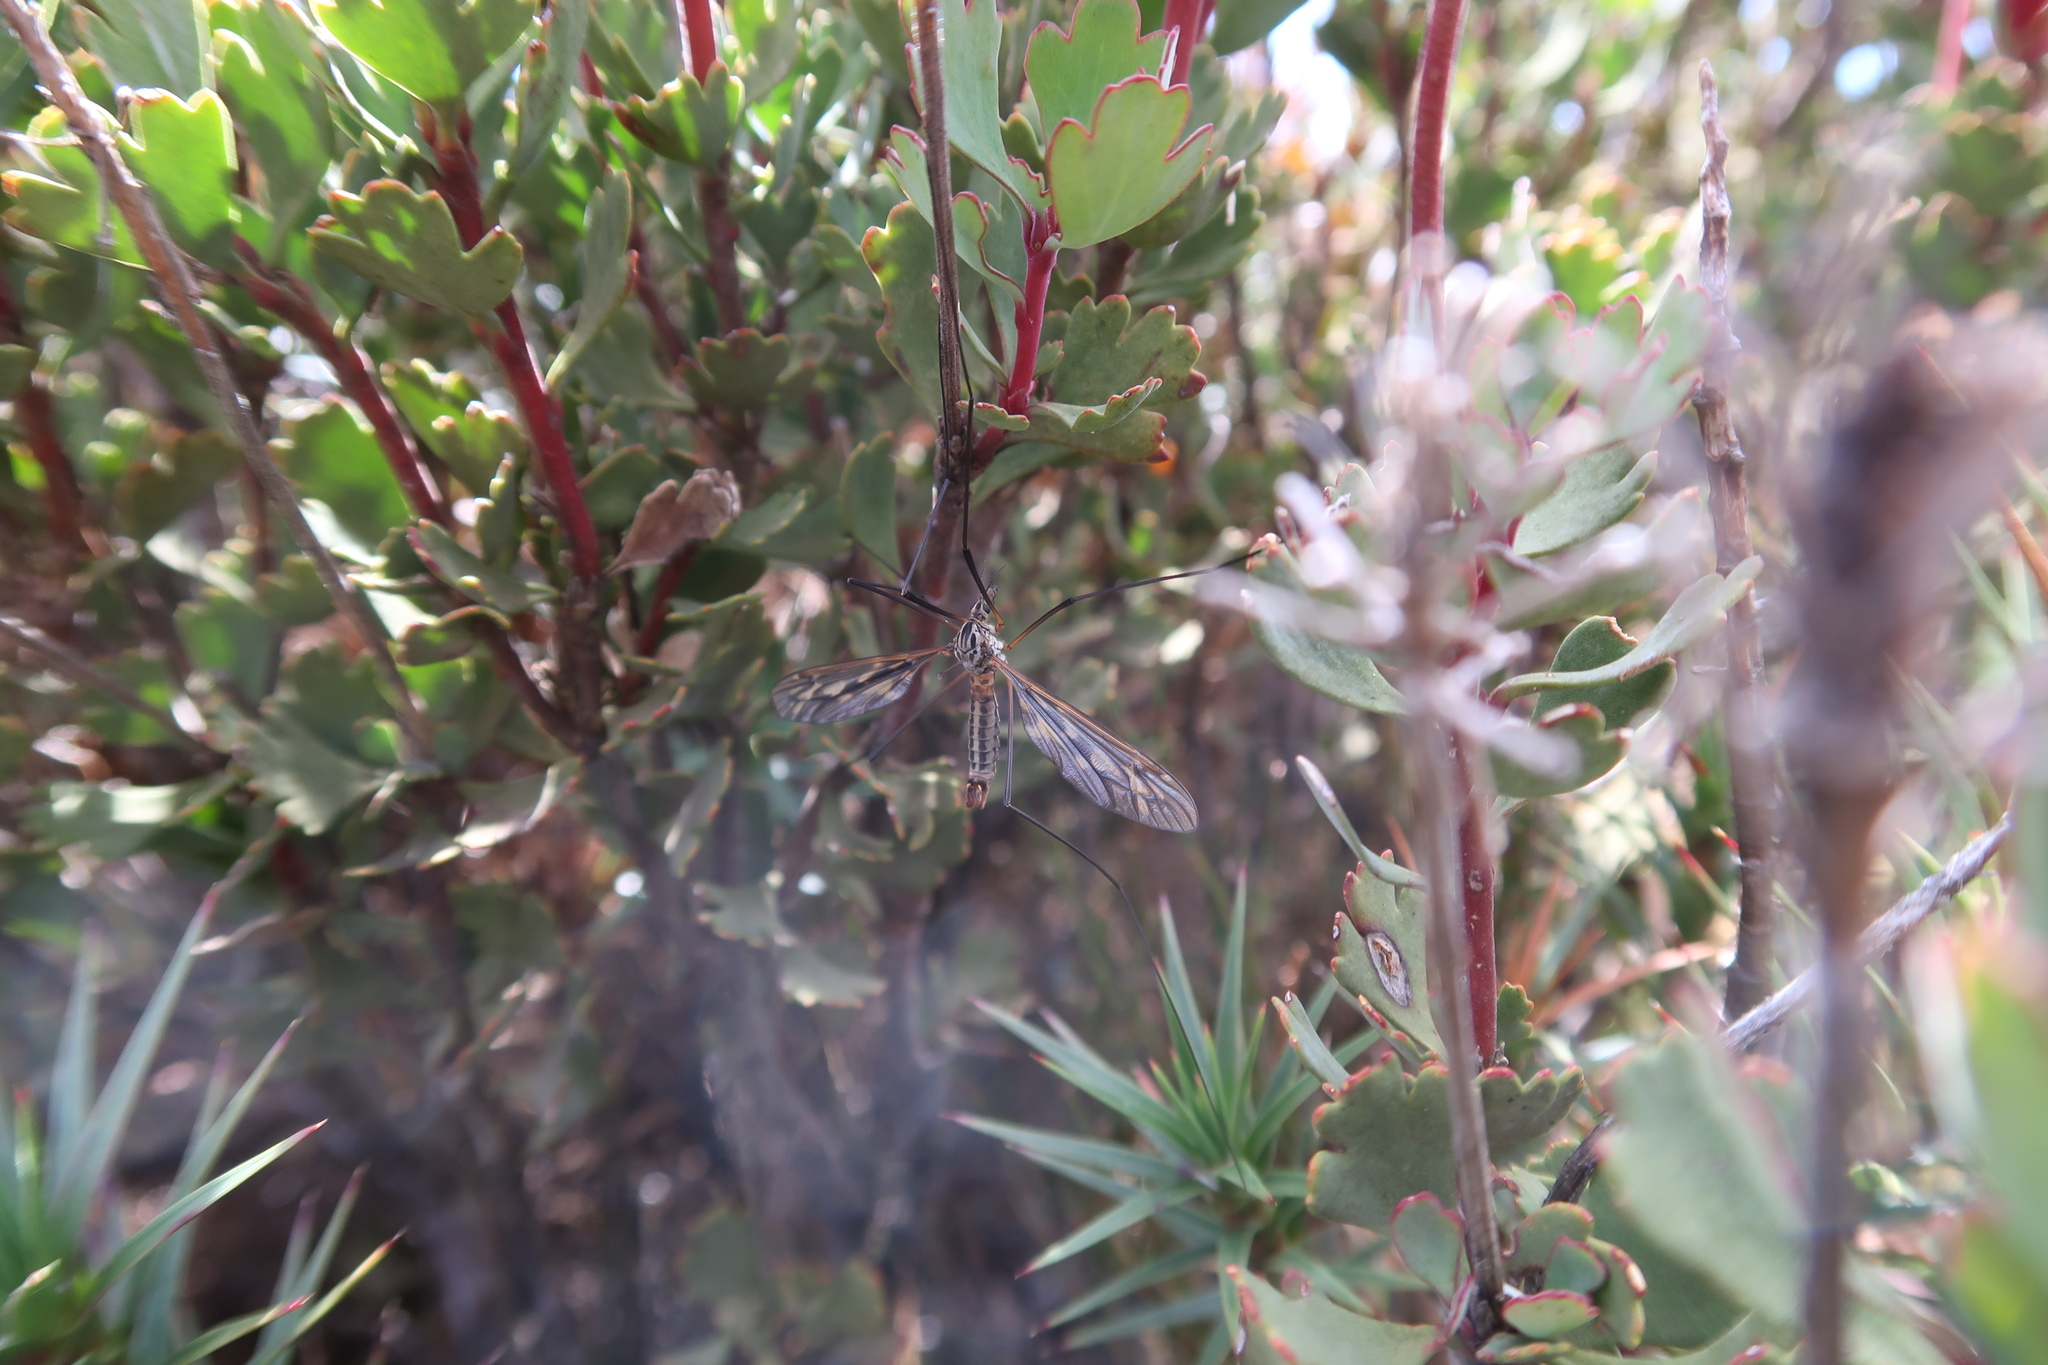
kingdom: Animalia
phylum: Arthropoda
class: Insecta
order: Diptera
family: Tipulidae
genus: Leptotarsus
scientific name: Leptotarsus tonnoiranus
